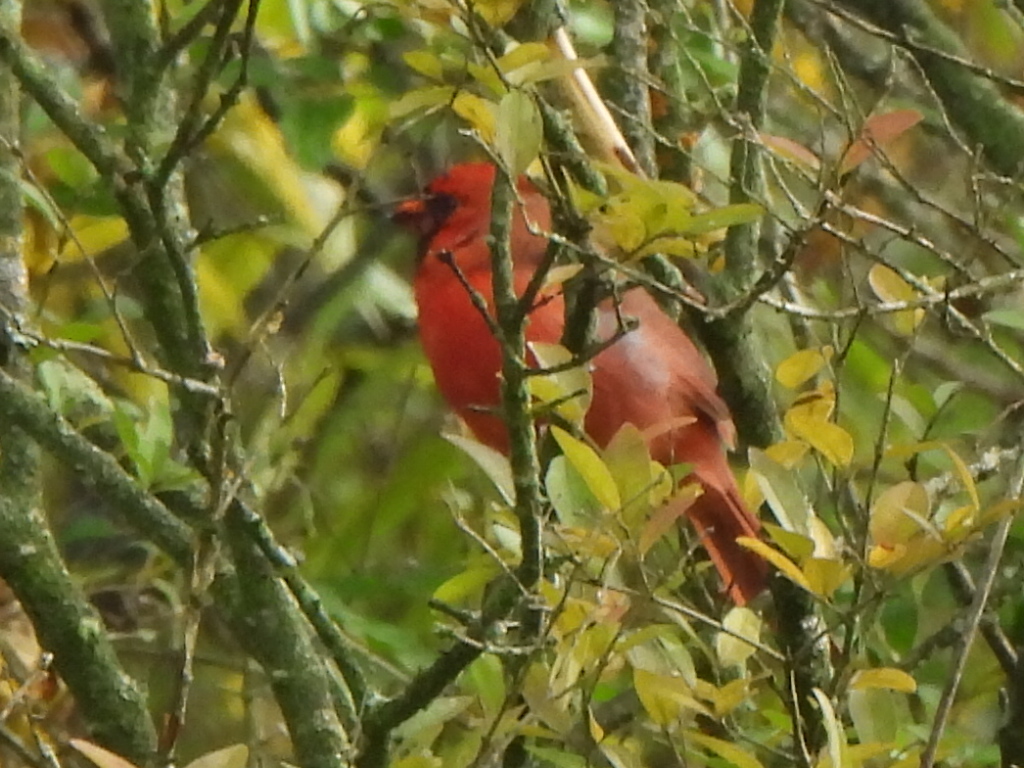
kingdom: Animalia
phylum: Chordata
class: Aves
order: Passeriformes
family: Cardinalidae
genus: Cardinalis
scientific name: Cardinalis cardinalis
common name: Northern cardinal
